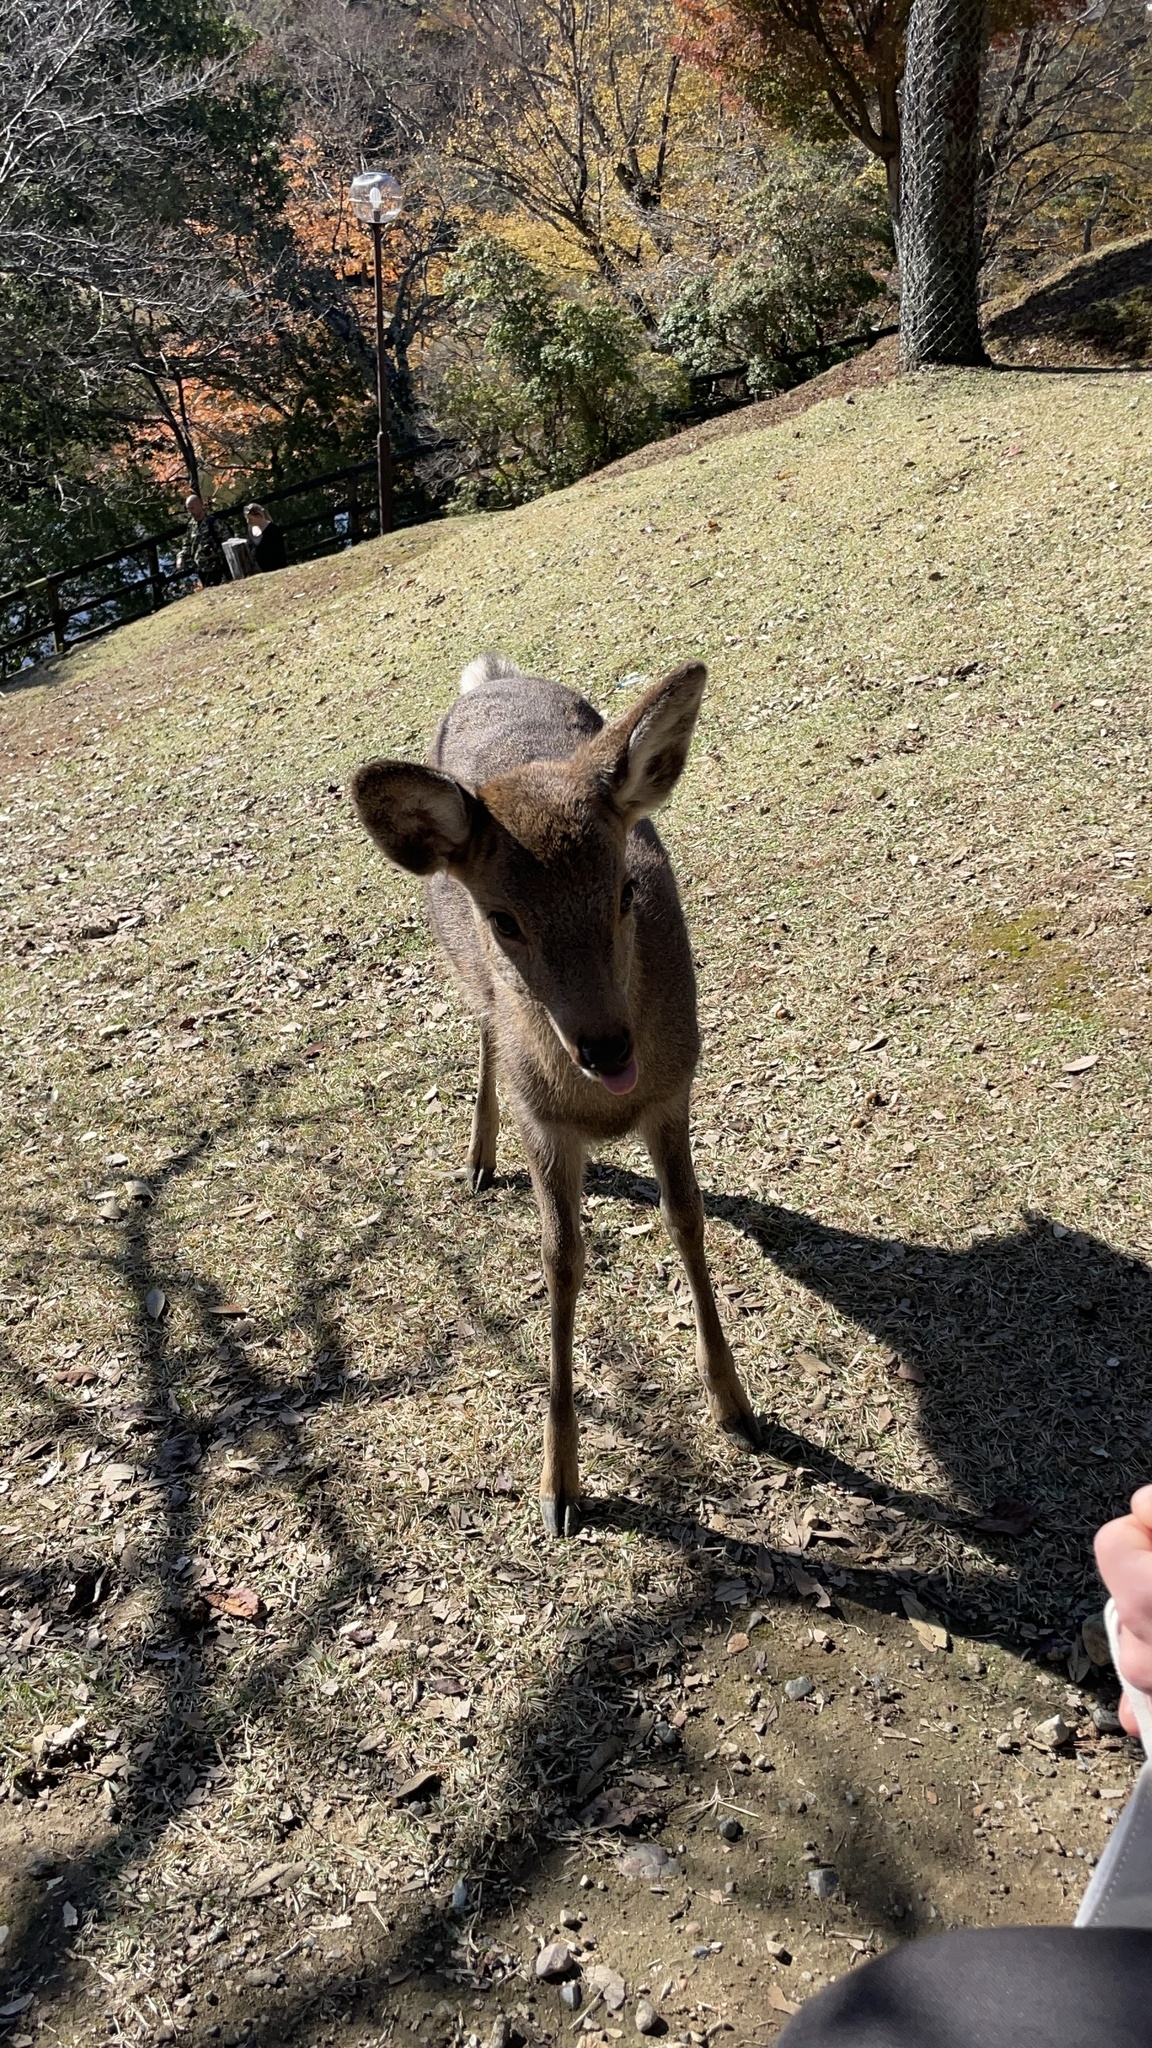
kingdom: Animalia
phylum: Chordata
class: Mammalia
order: Artiodactyla
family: Cervidae
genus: Cervus
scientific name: Cervus nippon
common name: Sika deer
